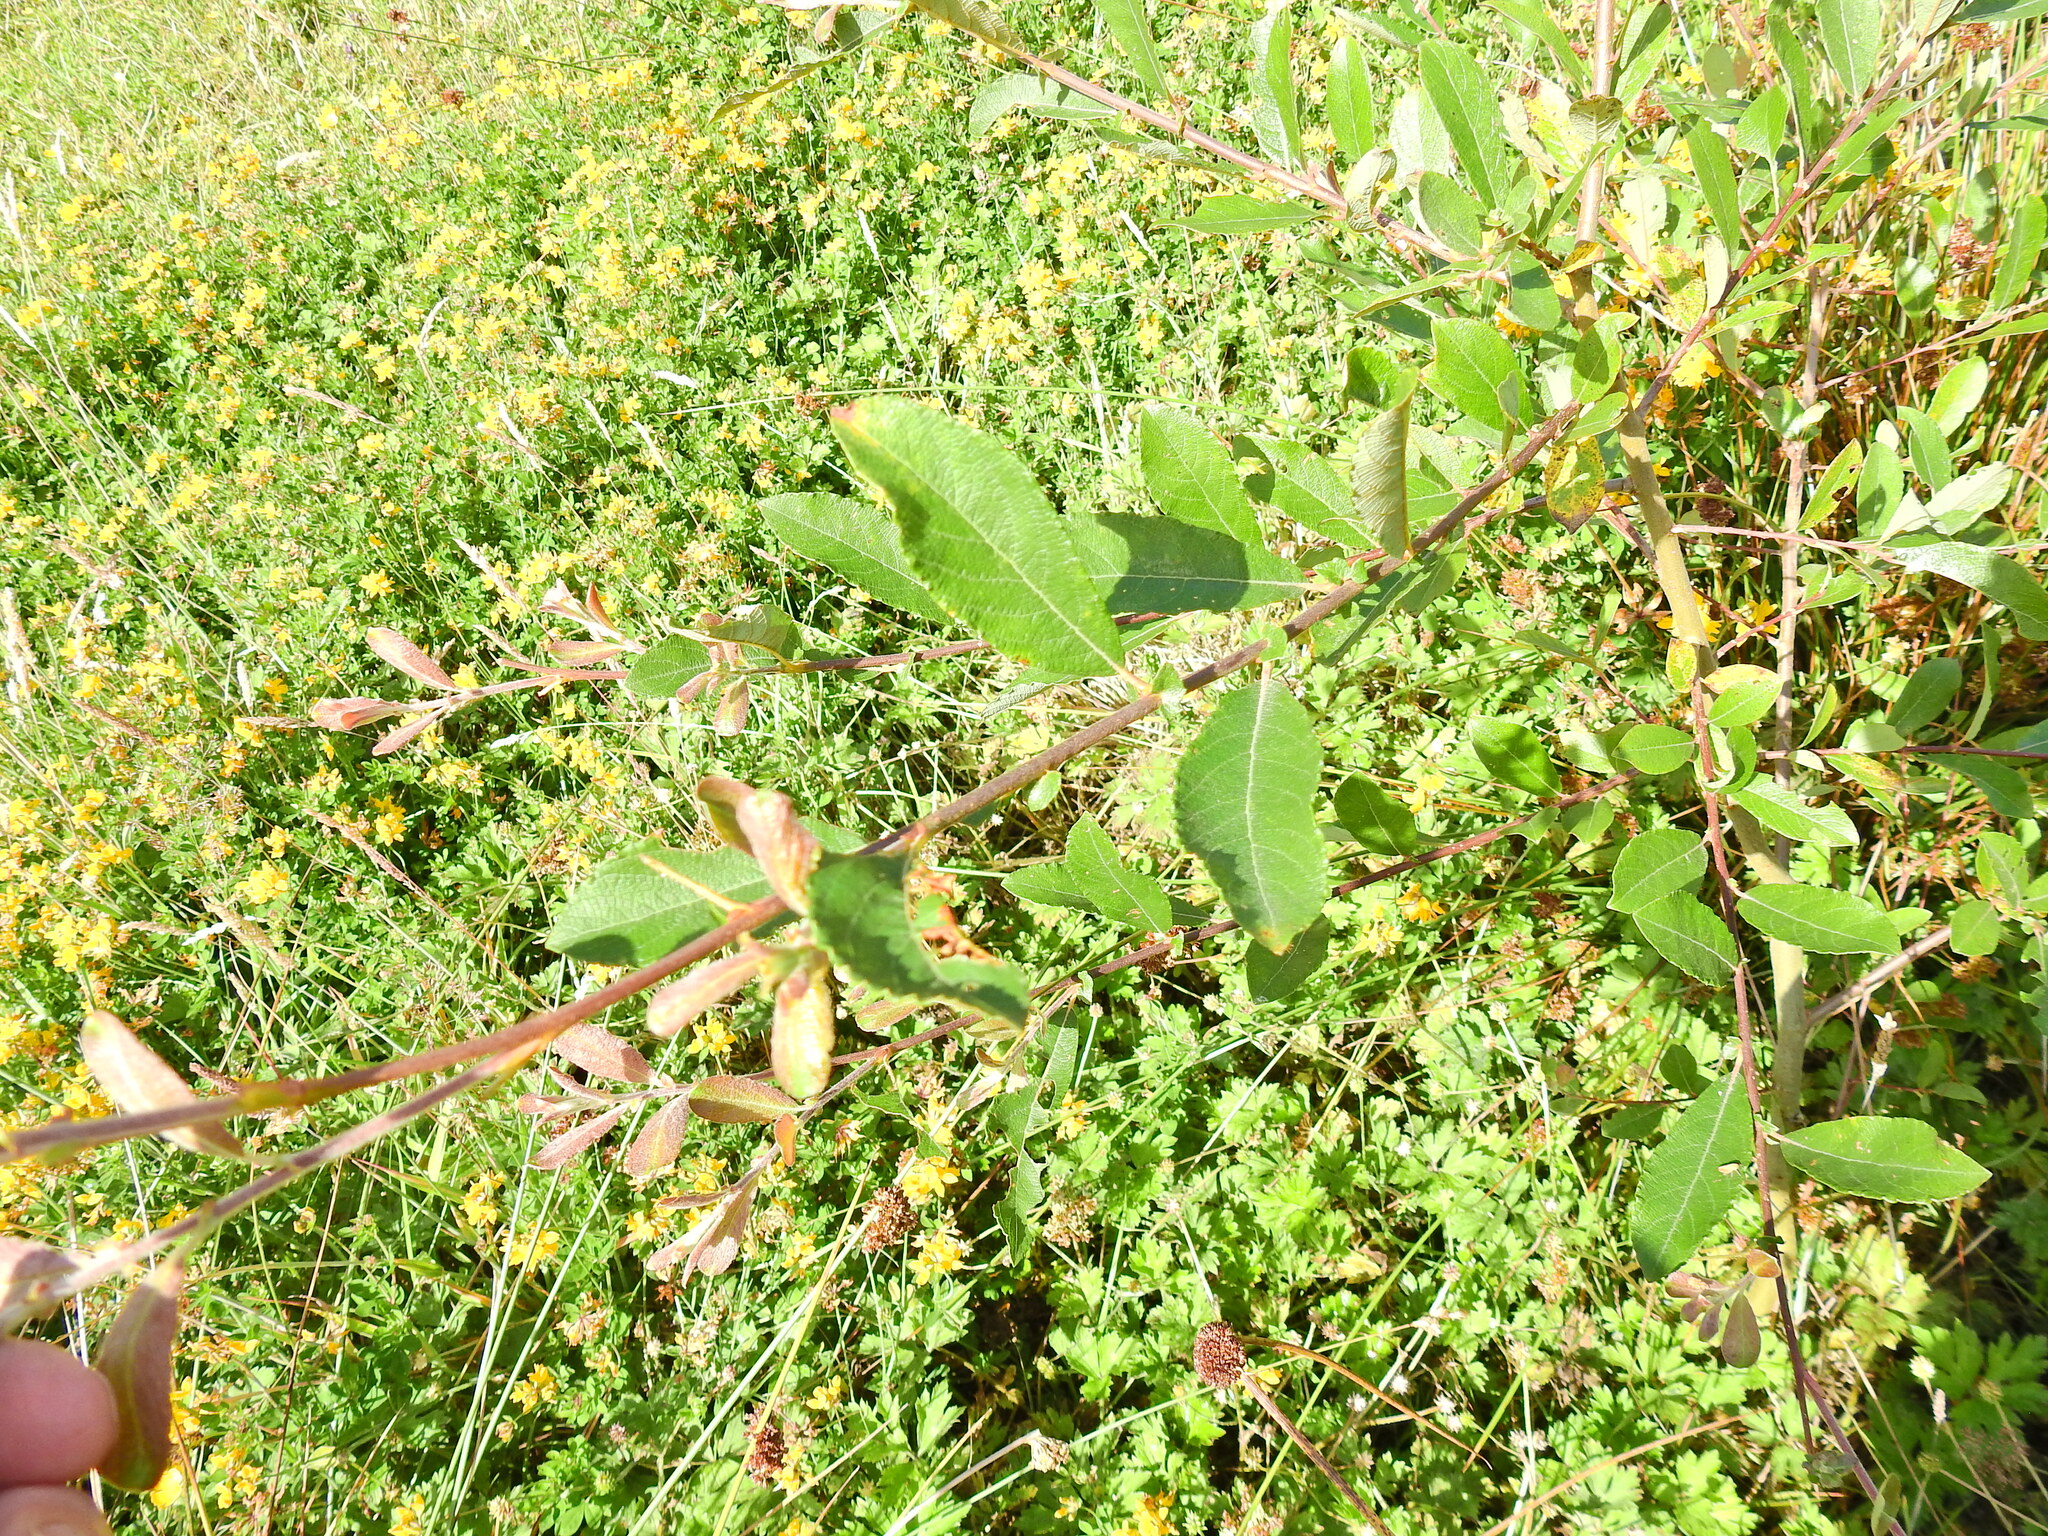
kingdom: Plantae
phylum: Tracheophyta
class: Magnoliopsida
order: Malpighiales
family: Salicaceae
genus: Salix
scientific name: Salix atrocinerea
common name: Rusty willow
